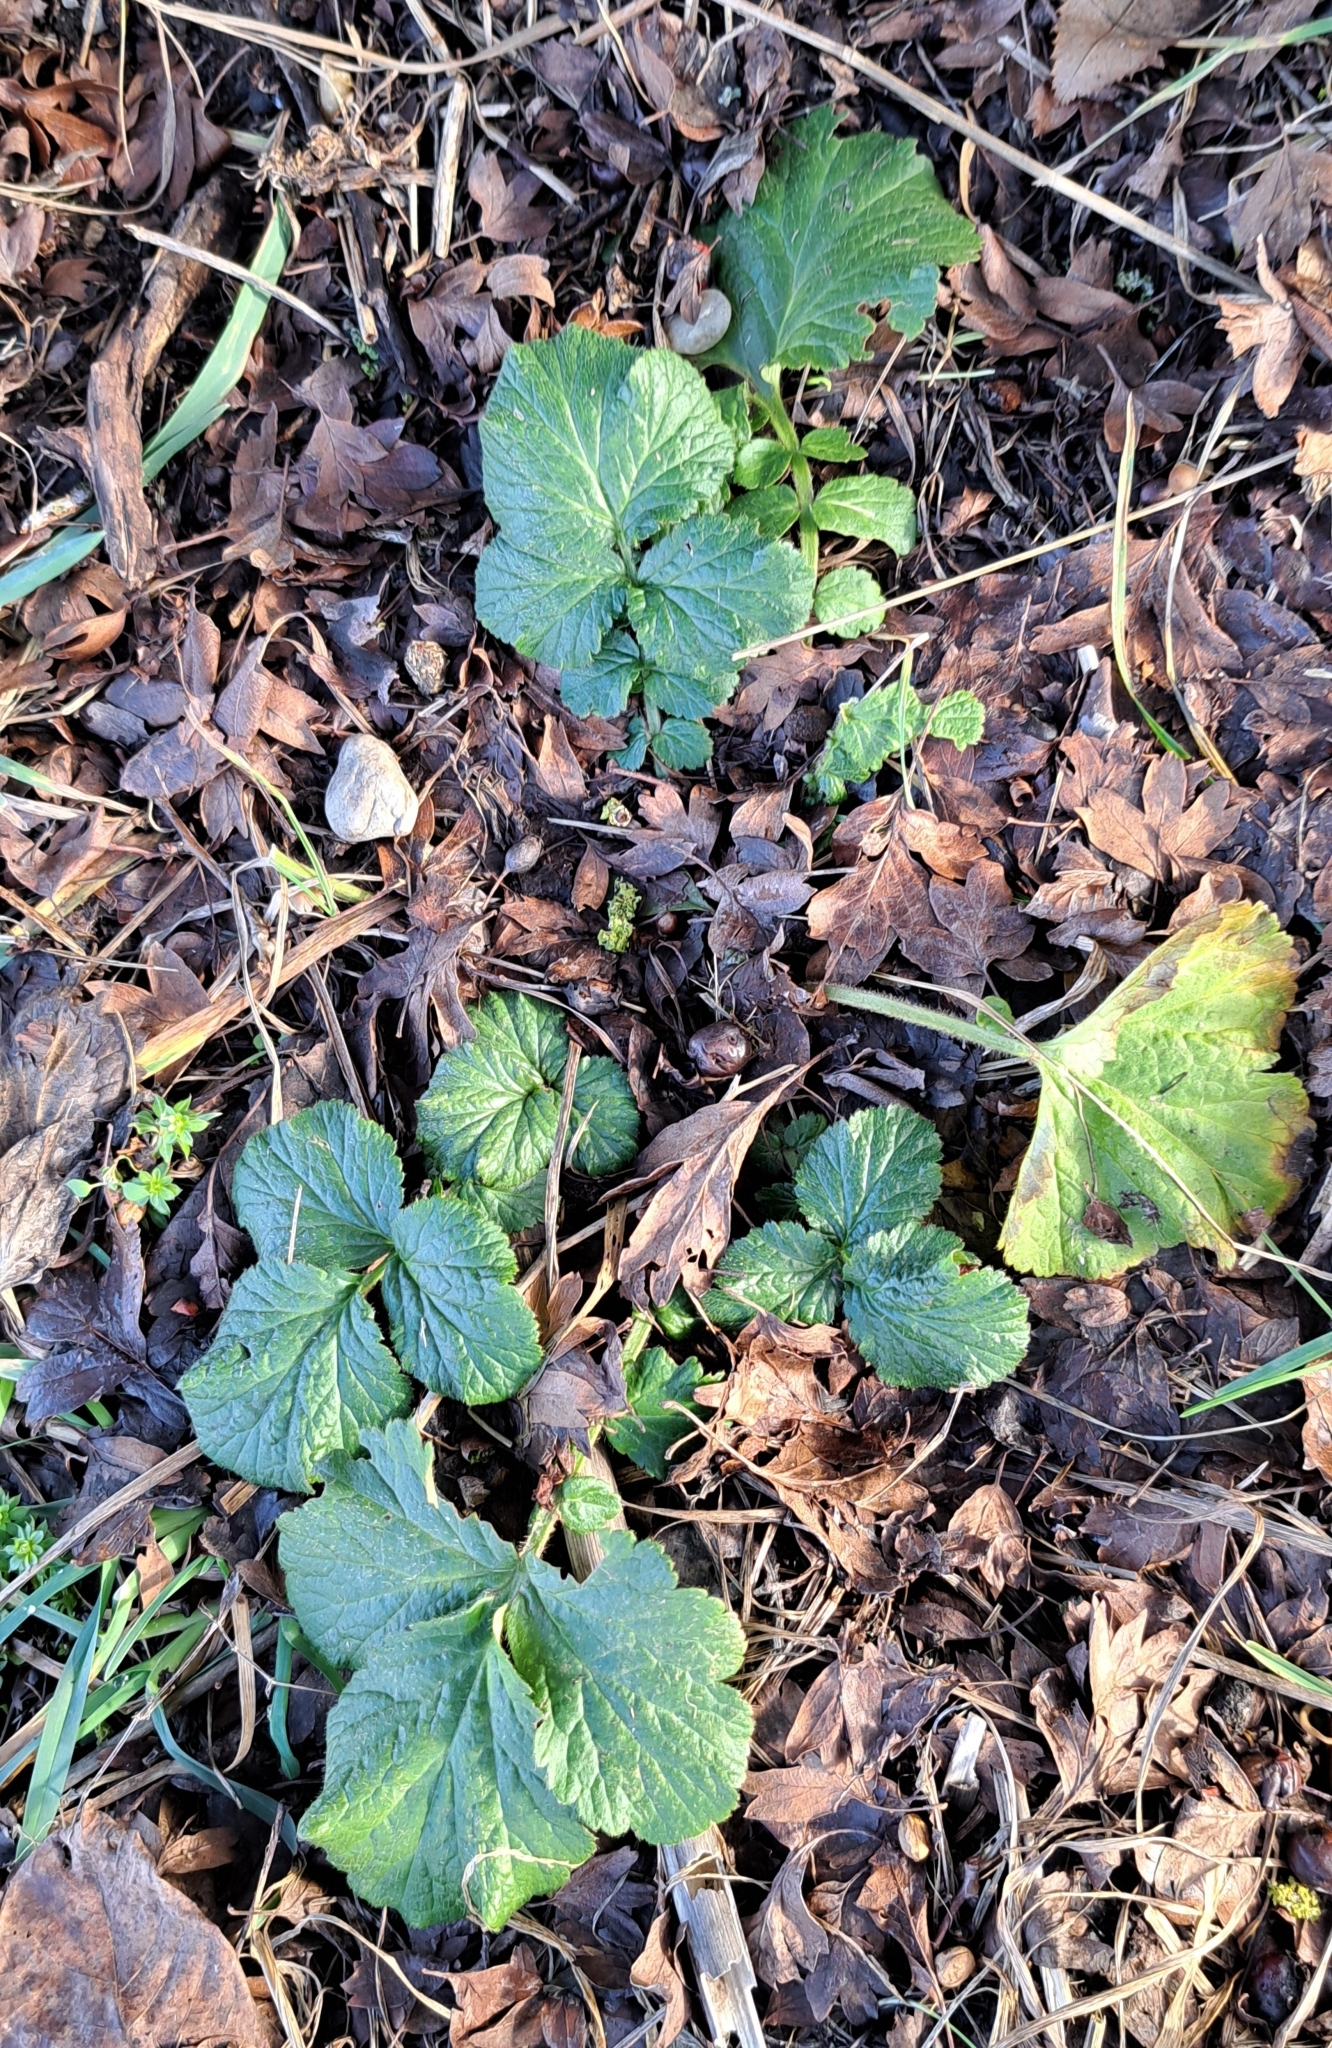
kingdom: Plantae
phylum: Tracheophyta
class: Magnoliopsida
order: Rosales
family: Rosaceae
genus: Geum
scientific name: Geum urbanum
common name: Wood avens
